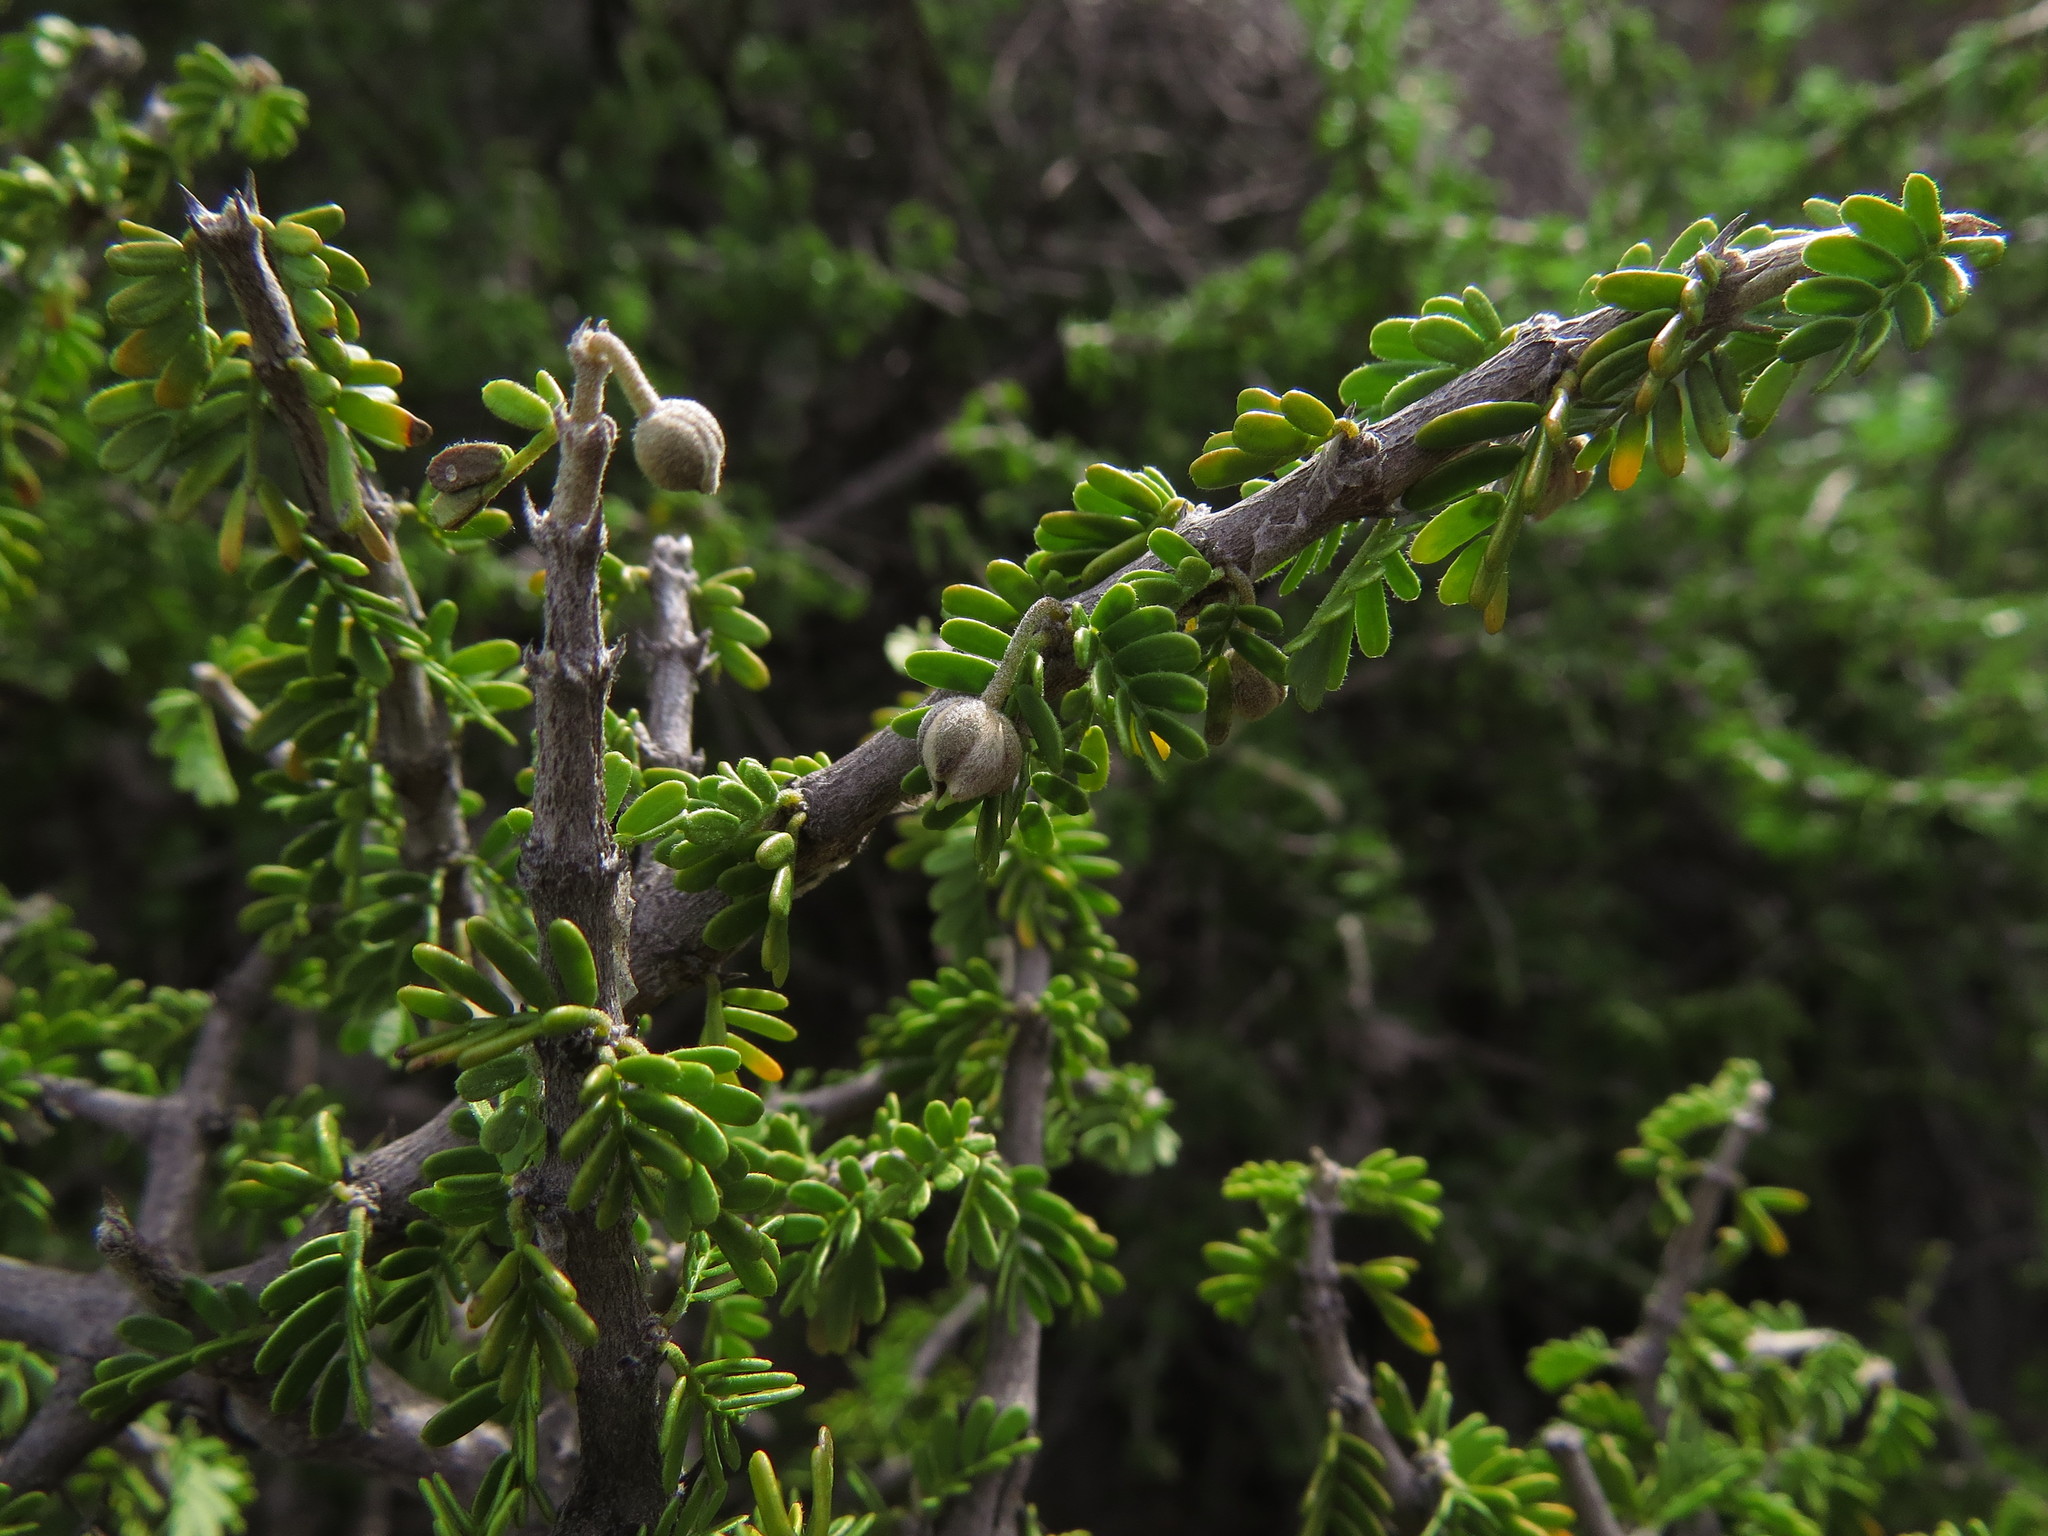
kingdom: Plantae
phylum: Tracheophyta
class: Magnoliopsida
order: Zygophyllales
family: Zygophyllaceae
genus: Porlieria
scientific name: Porlieria chilensis
